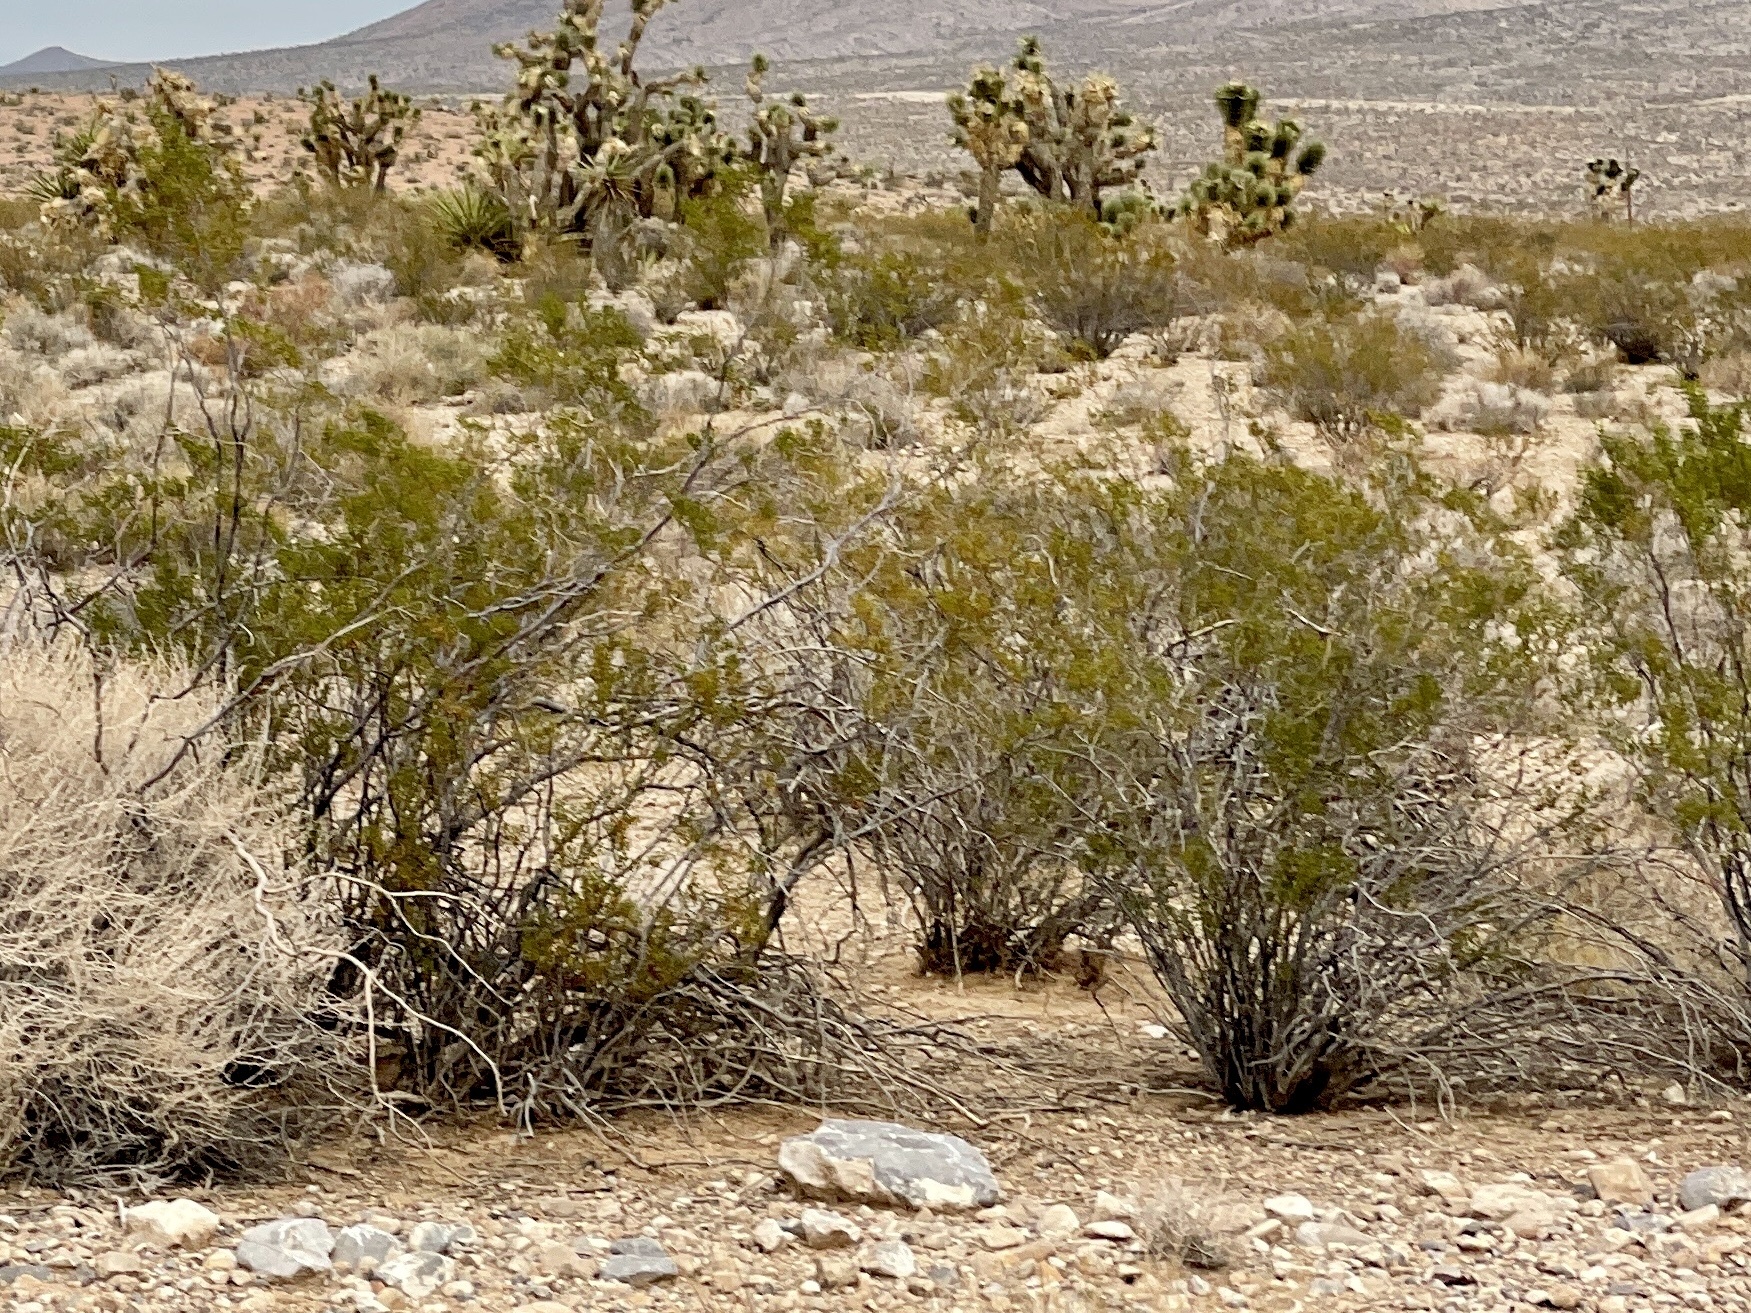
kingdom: Plantae
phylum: Tracheophyta
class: Magnoliopsida
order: Zygophyllales
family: Zygophyllaceae
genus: Larrea
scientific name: Larrea tridentata
